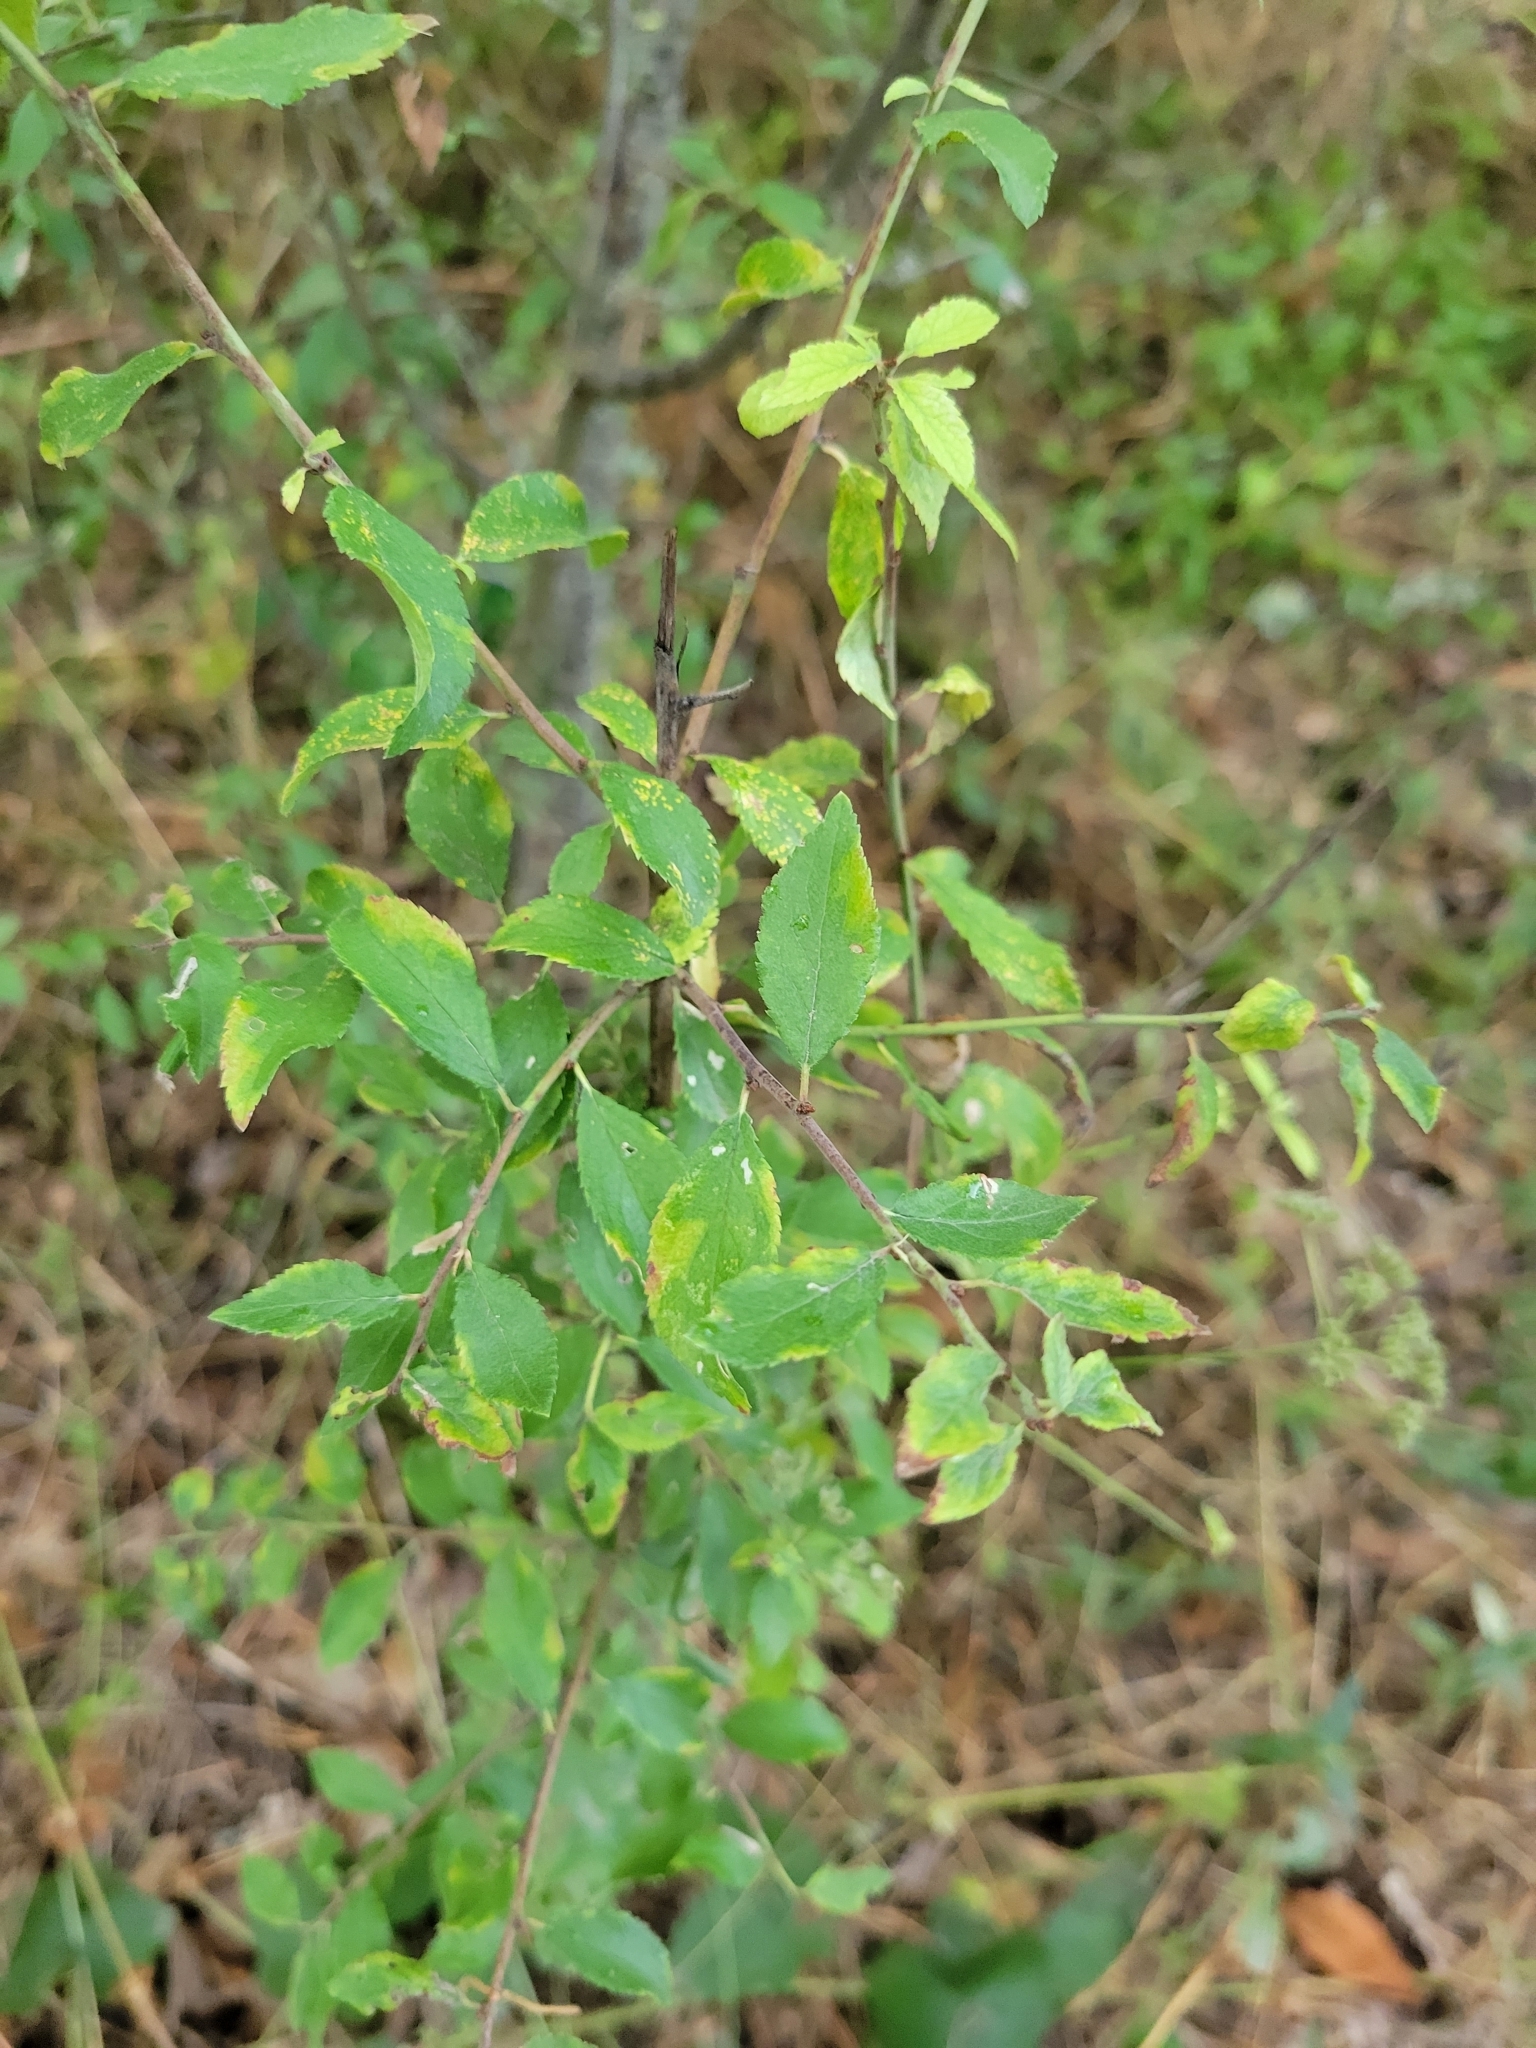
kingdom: Plantae
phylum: Tracheophyta
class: Magnoliopsida
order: Rosales
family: Rosaceae
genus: Prunus
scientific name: Prunus spinosa
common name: Blackthorn
